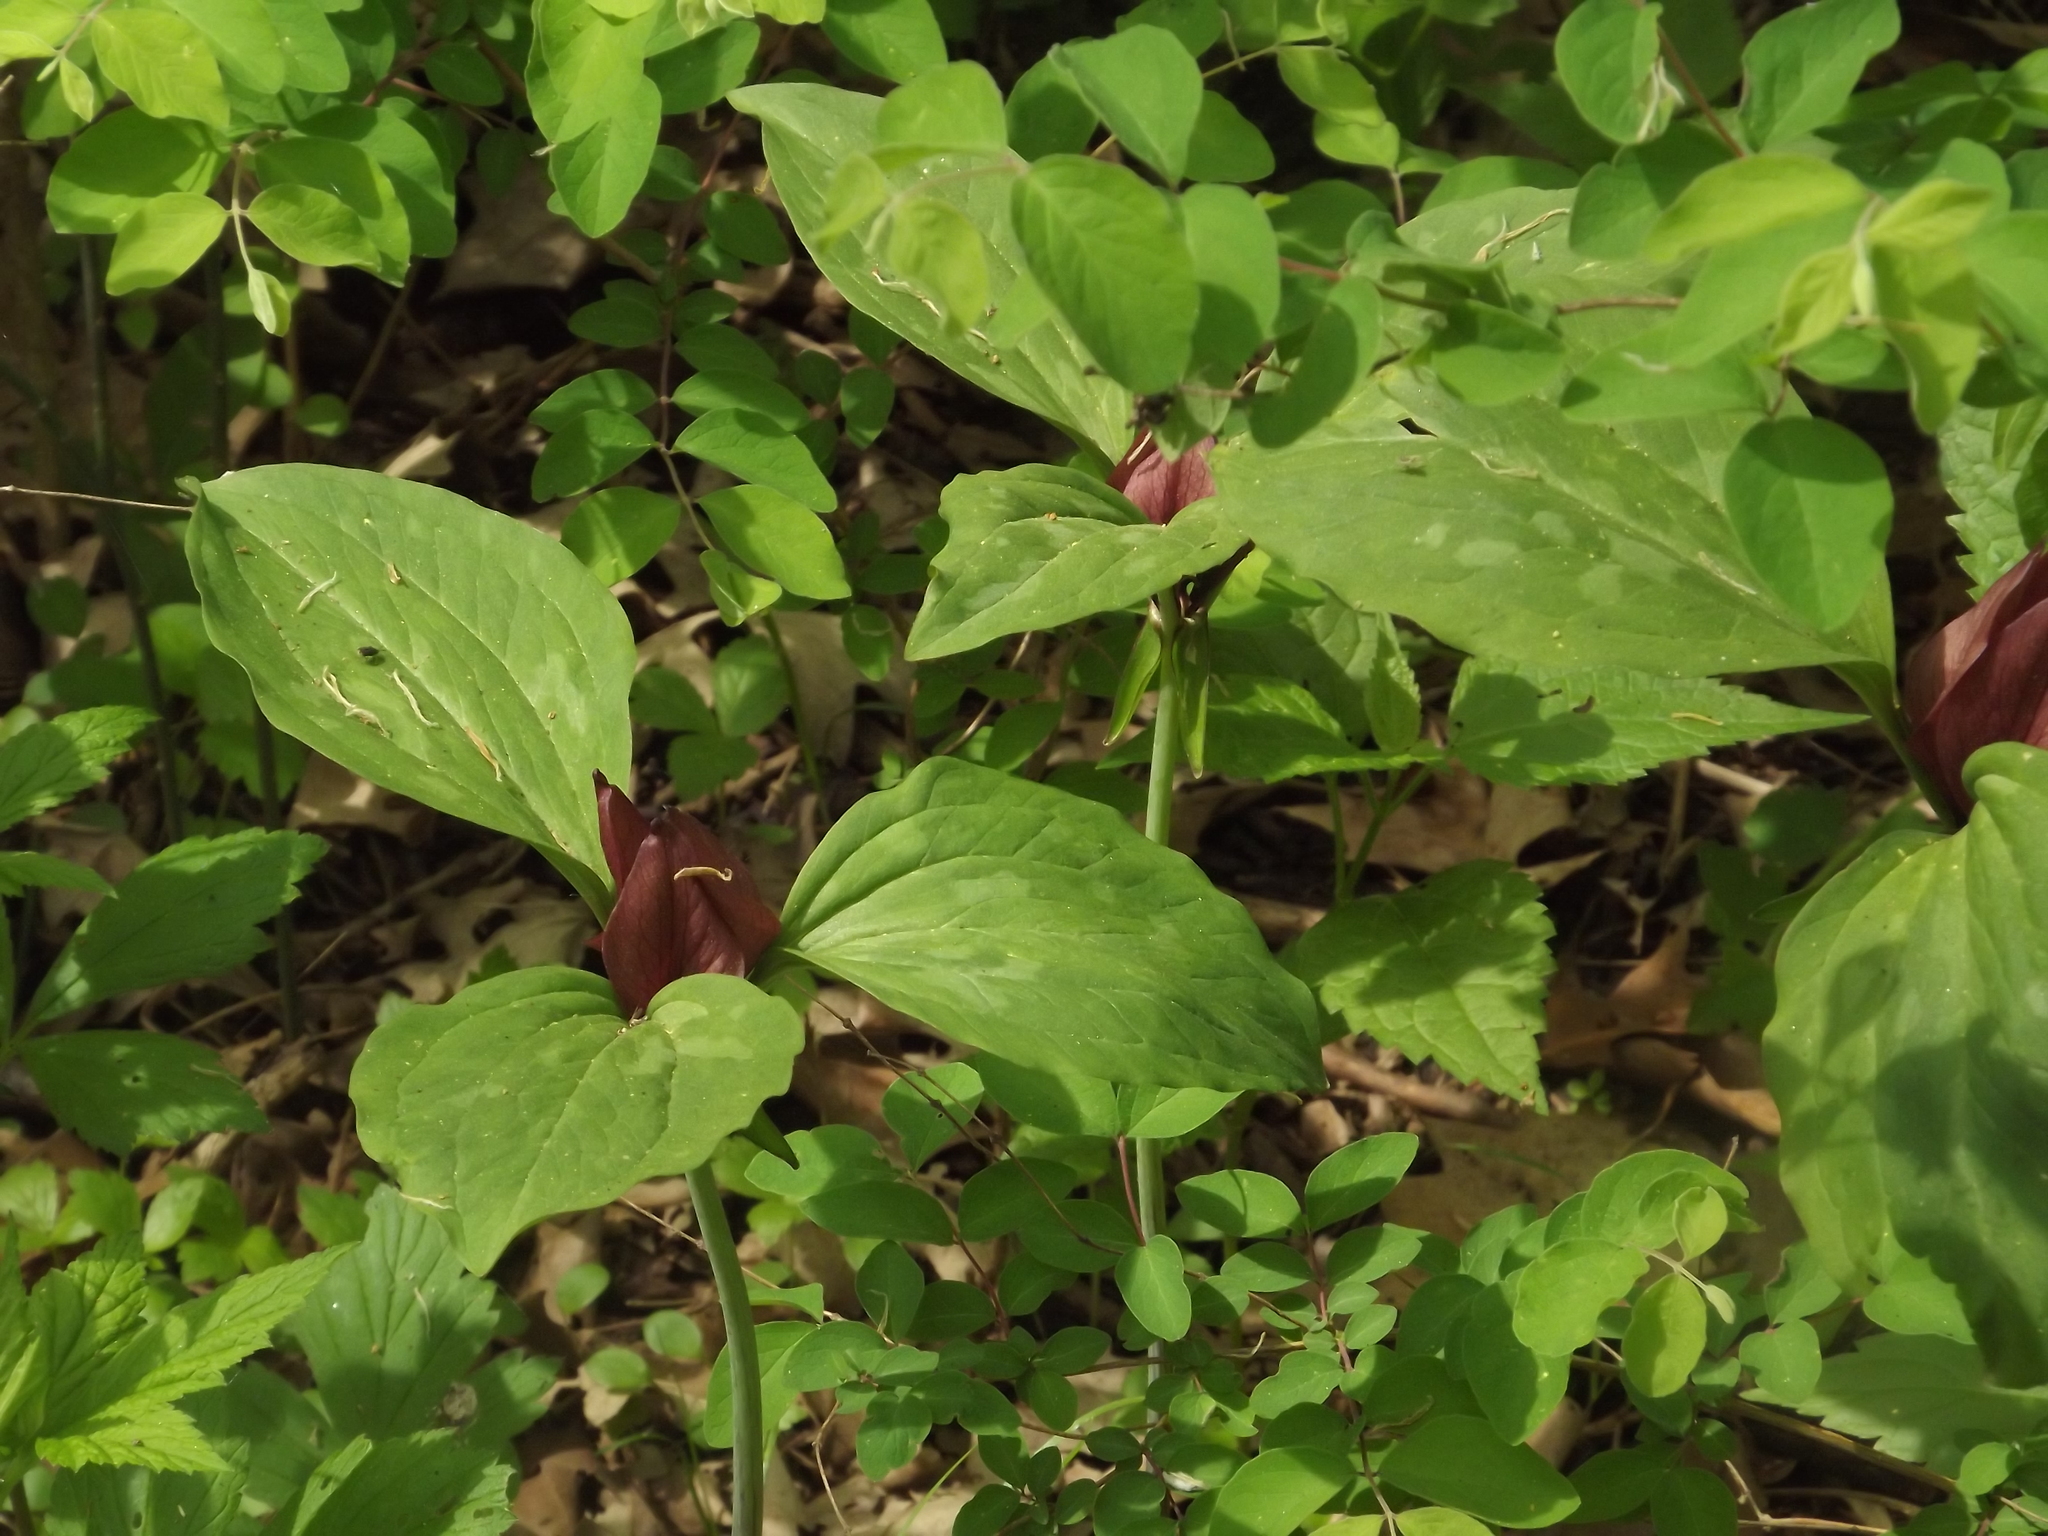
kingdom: Plantae
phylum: Tracheophyta
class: Liliopsida
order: Liliales
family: Melanthiaceae
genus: Trillium
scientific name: Trillium recurvatum
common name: Bloody butcher
